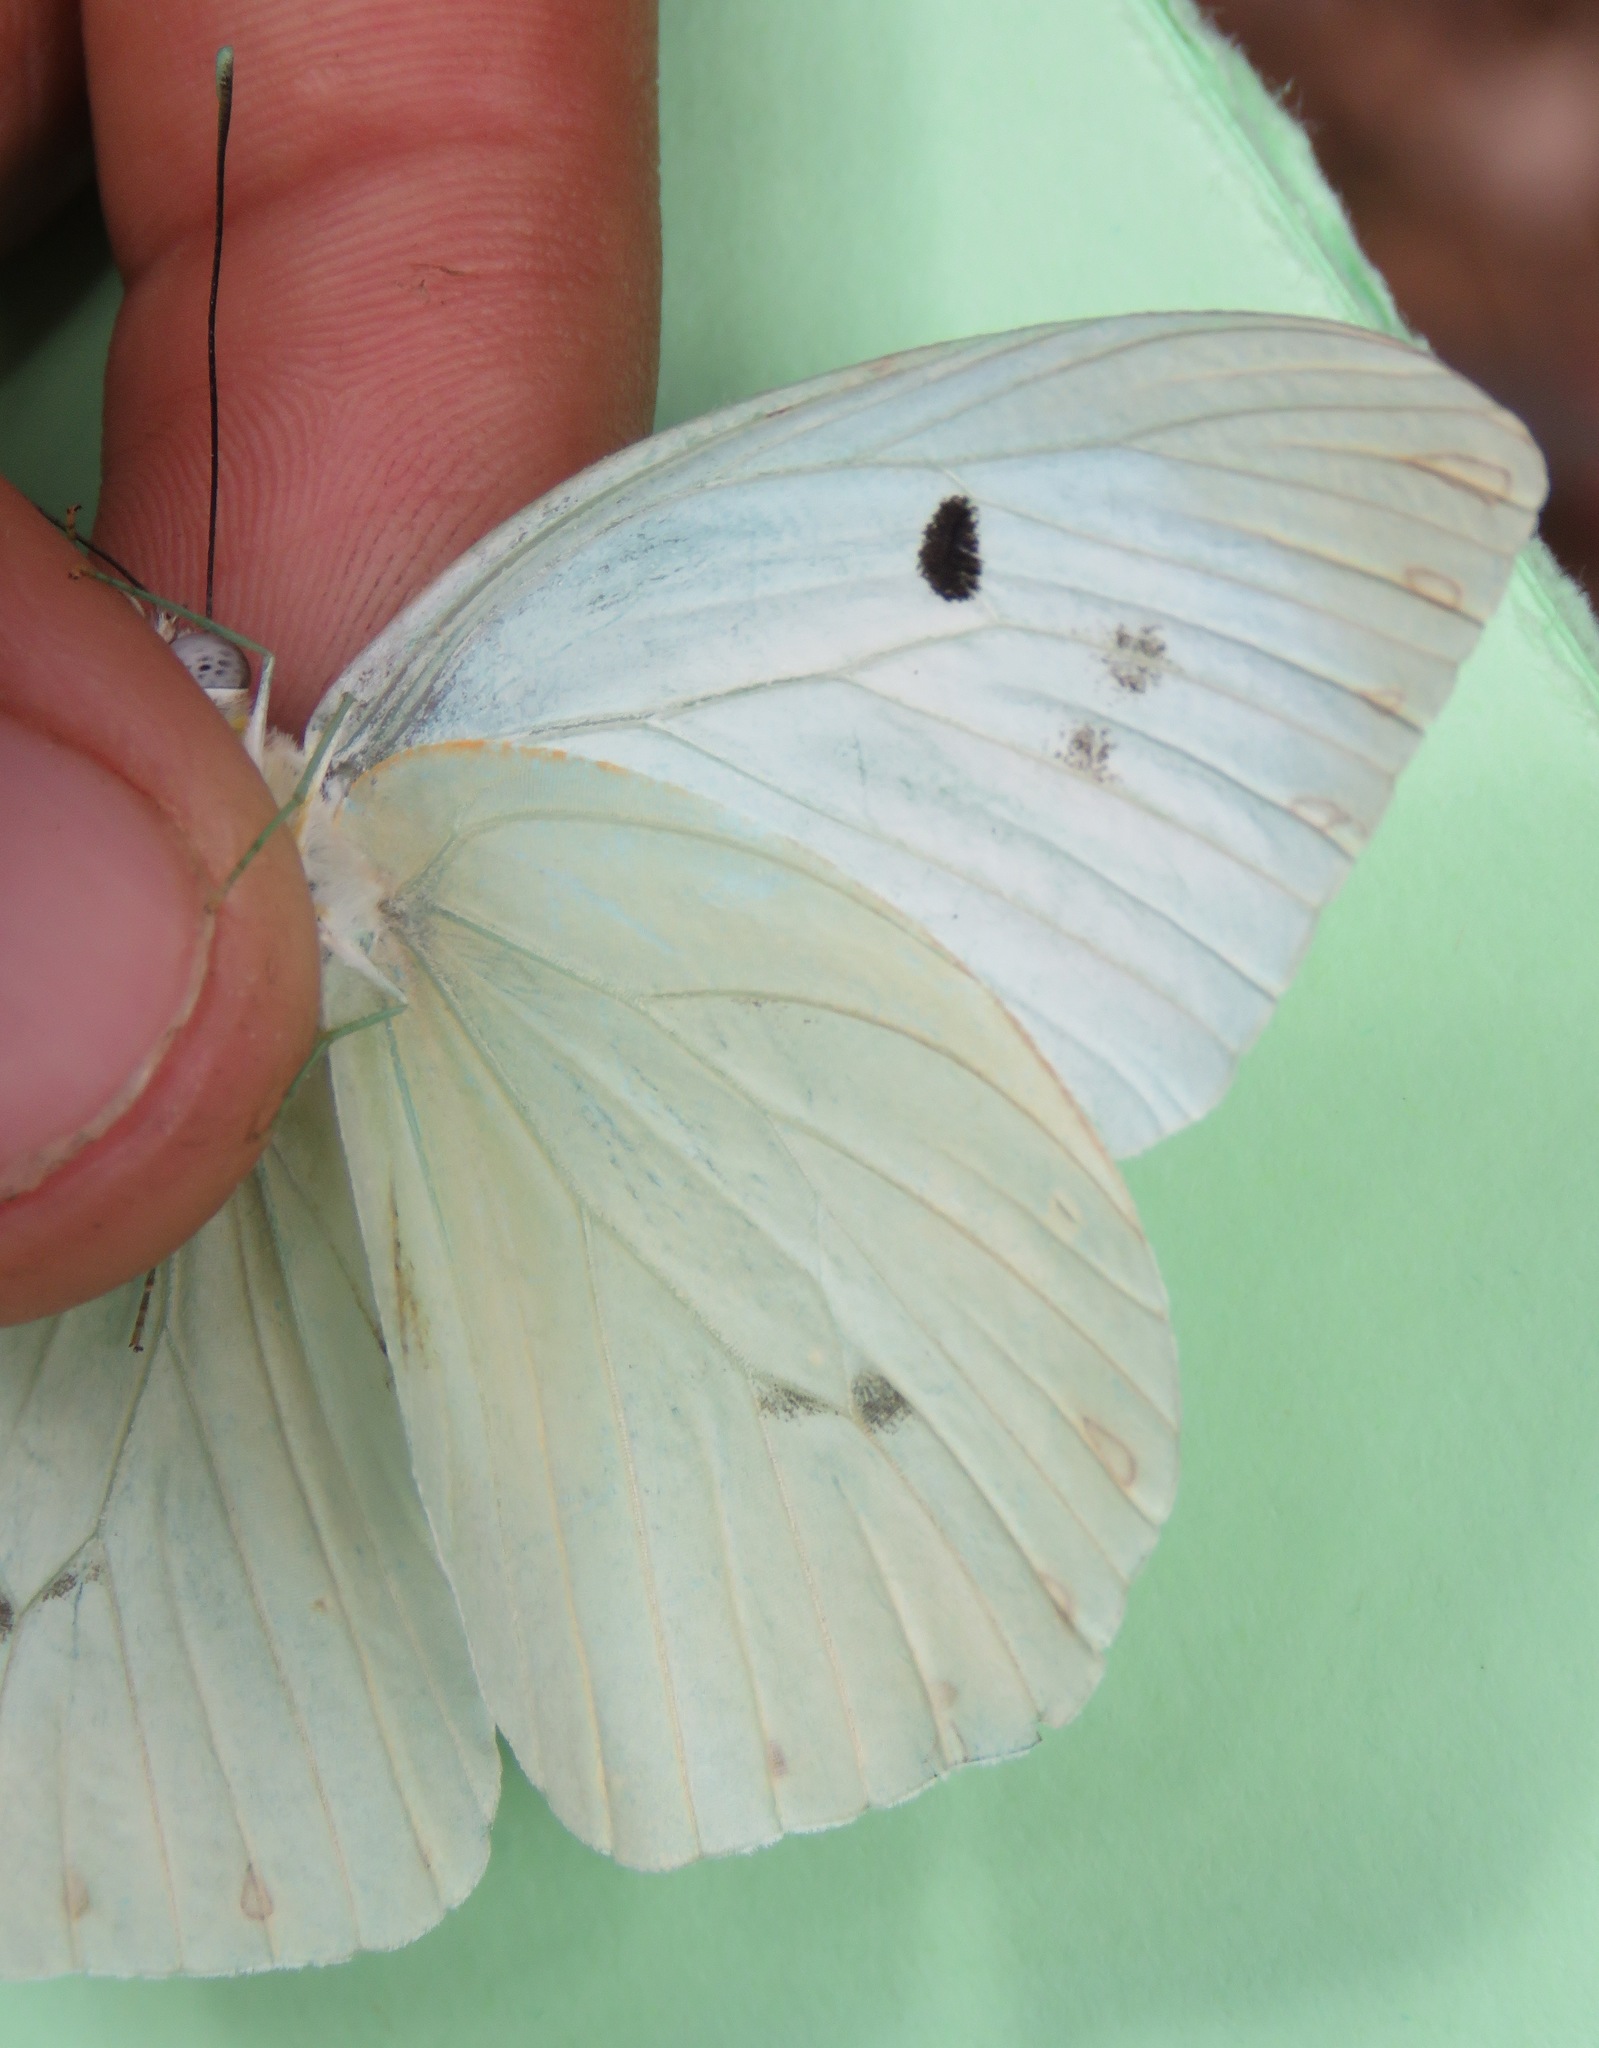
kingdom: Animalia
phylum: Arthropoda
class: Insecta
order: Lepidoptera
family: Pieridae
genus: Ganyra
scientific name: Ganyra josephina
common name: Giant white
